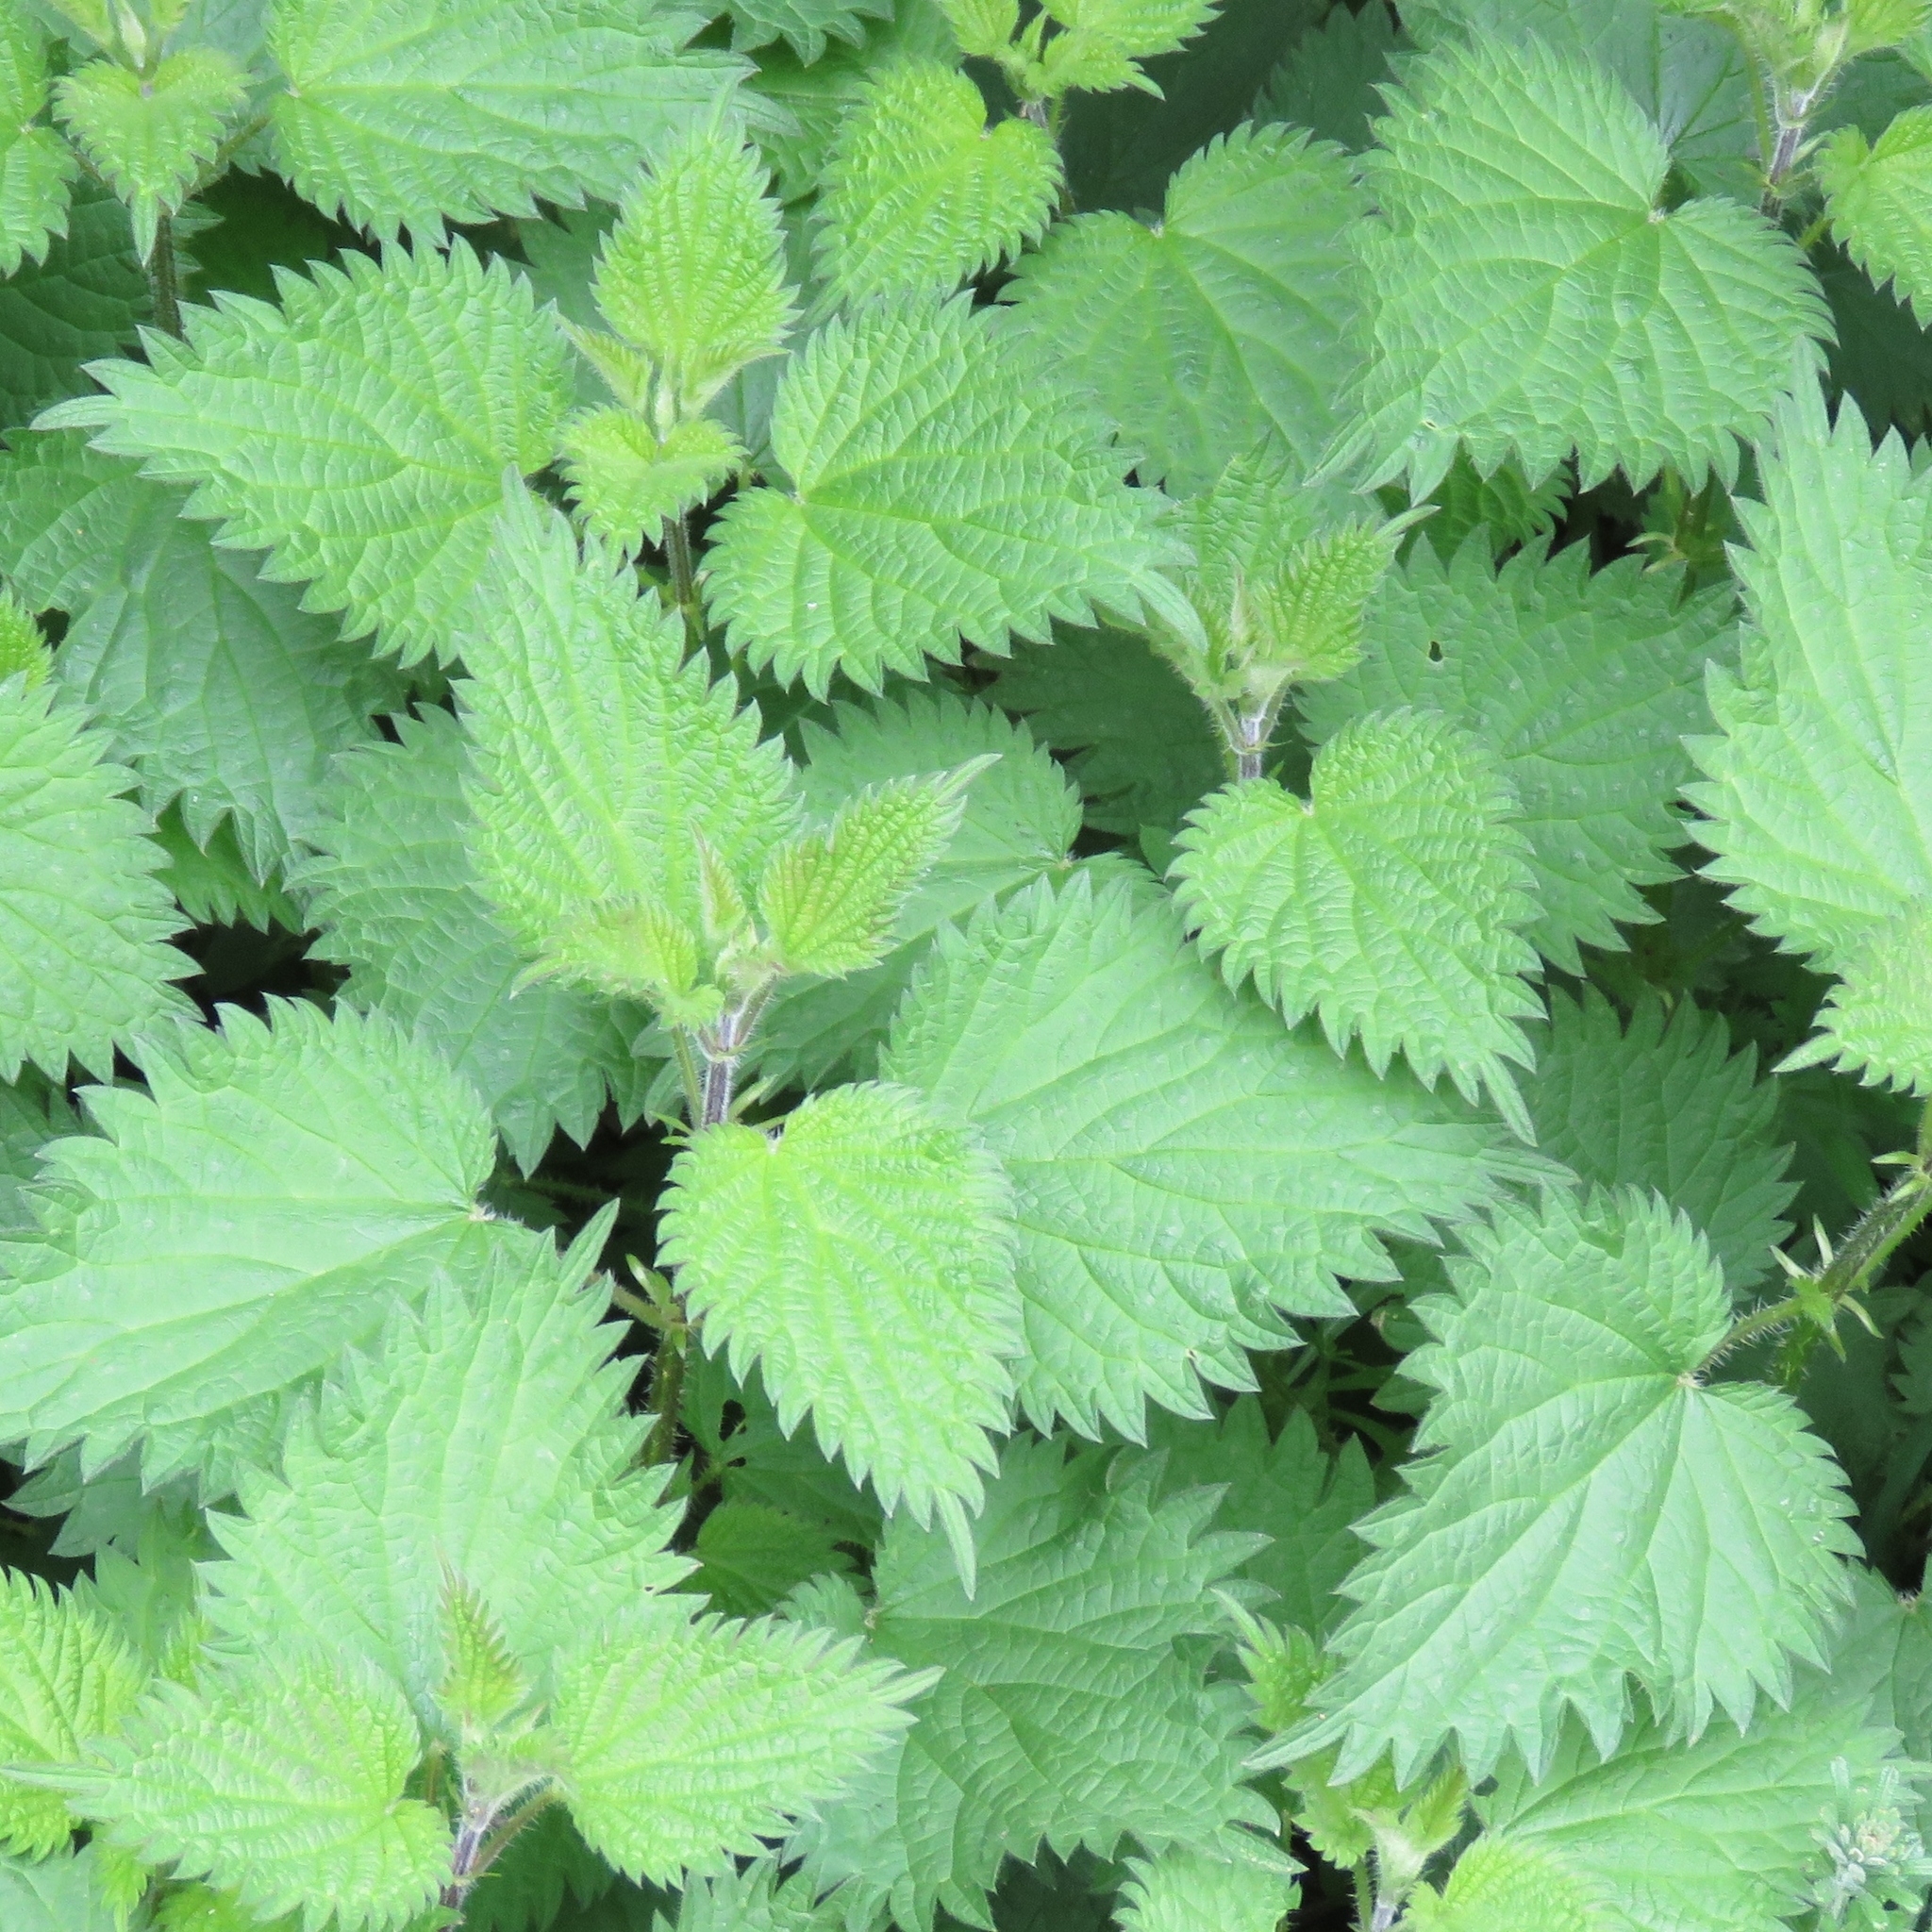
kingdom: Plantae
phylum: Tracheophyta
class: Magnoliopsida
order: Rosales
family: Urticaceae
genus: Urtica
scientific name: Urtica dioica
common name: Common nettle
